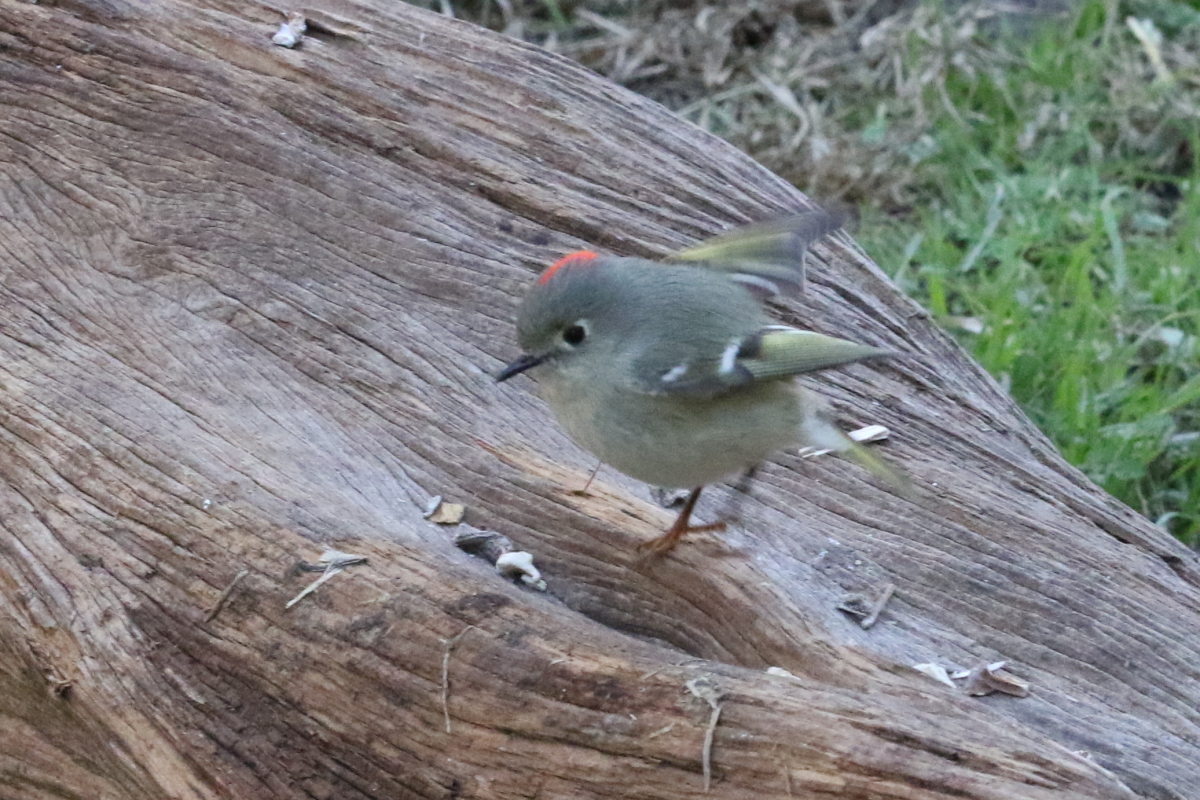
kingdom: Animalia
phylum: Chordata
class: Aves
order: Passeriformes
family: Regulidae
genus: Regulus
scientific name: Regulus calendula
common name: Ruby-crowned kinglet
